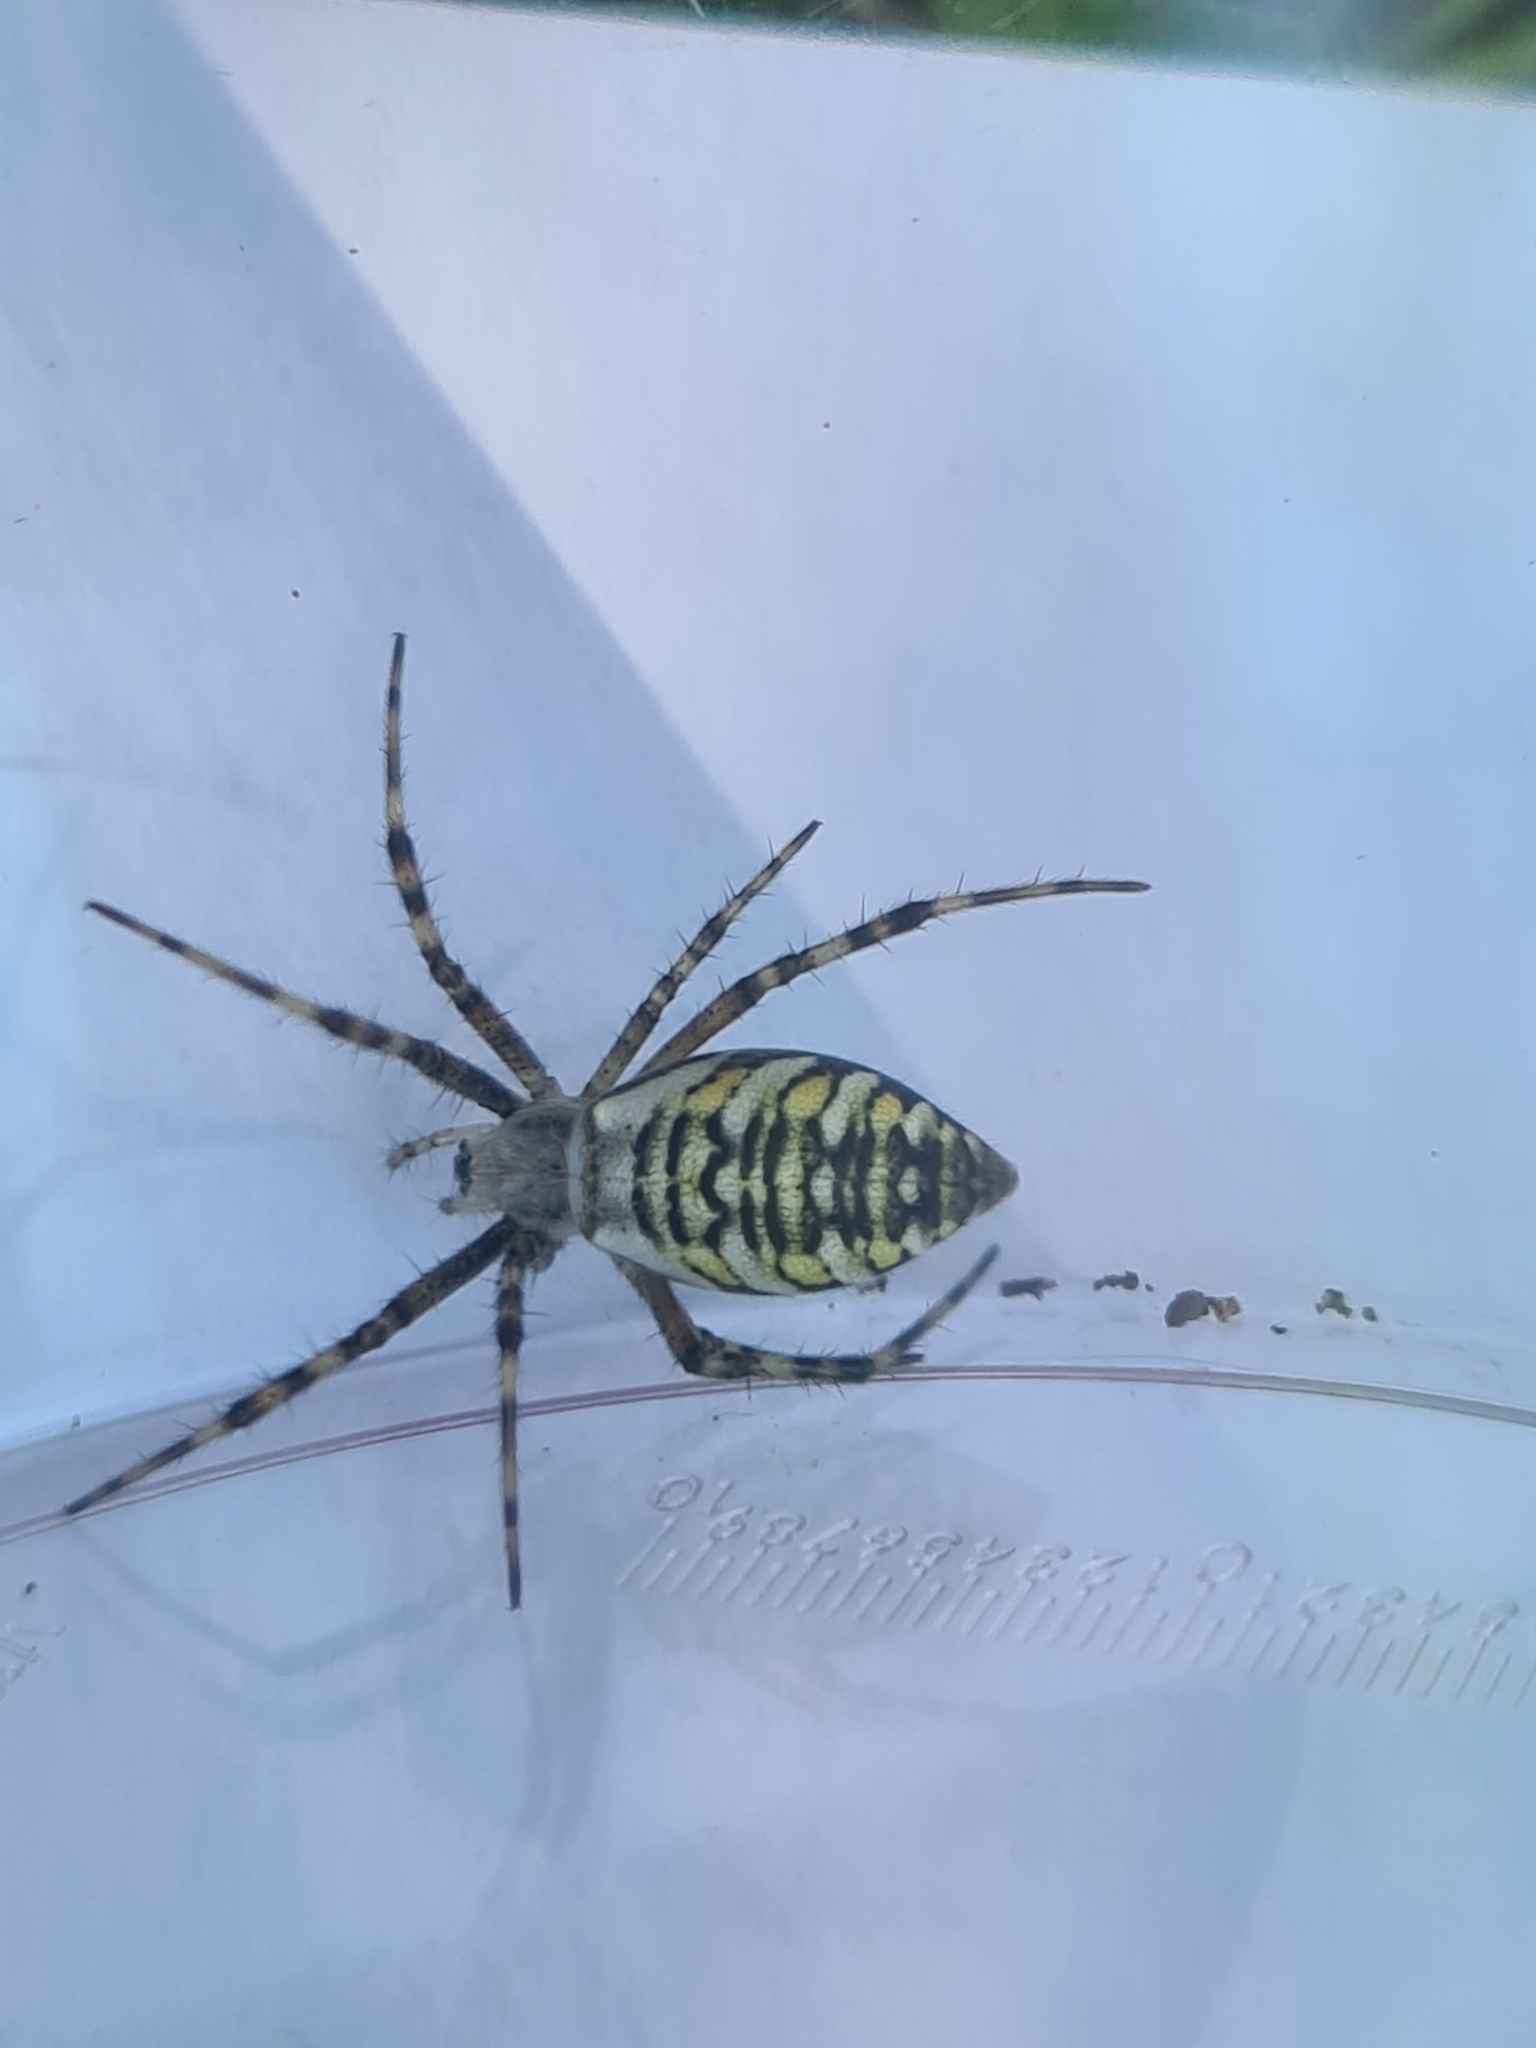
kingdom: Animalia
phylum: Arthropoda
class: Arachnida
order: Araneae
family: Araneidae
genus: Argiope
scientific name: Argiope bruennichi
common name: Wasp spider
